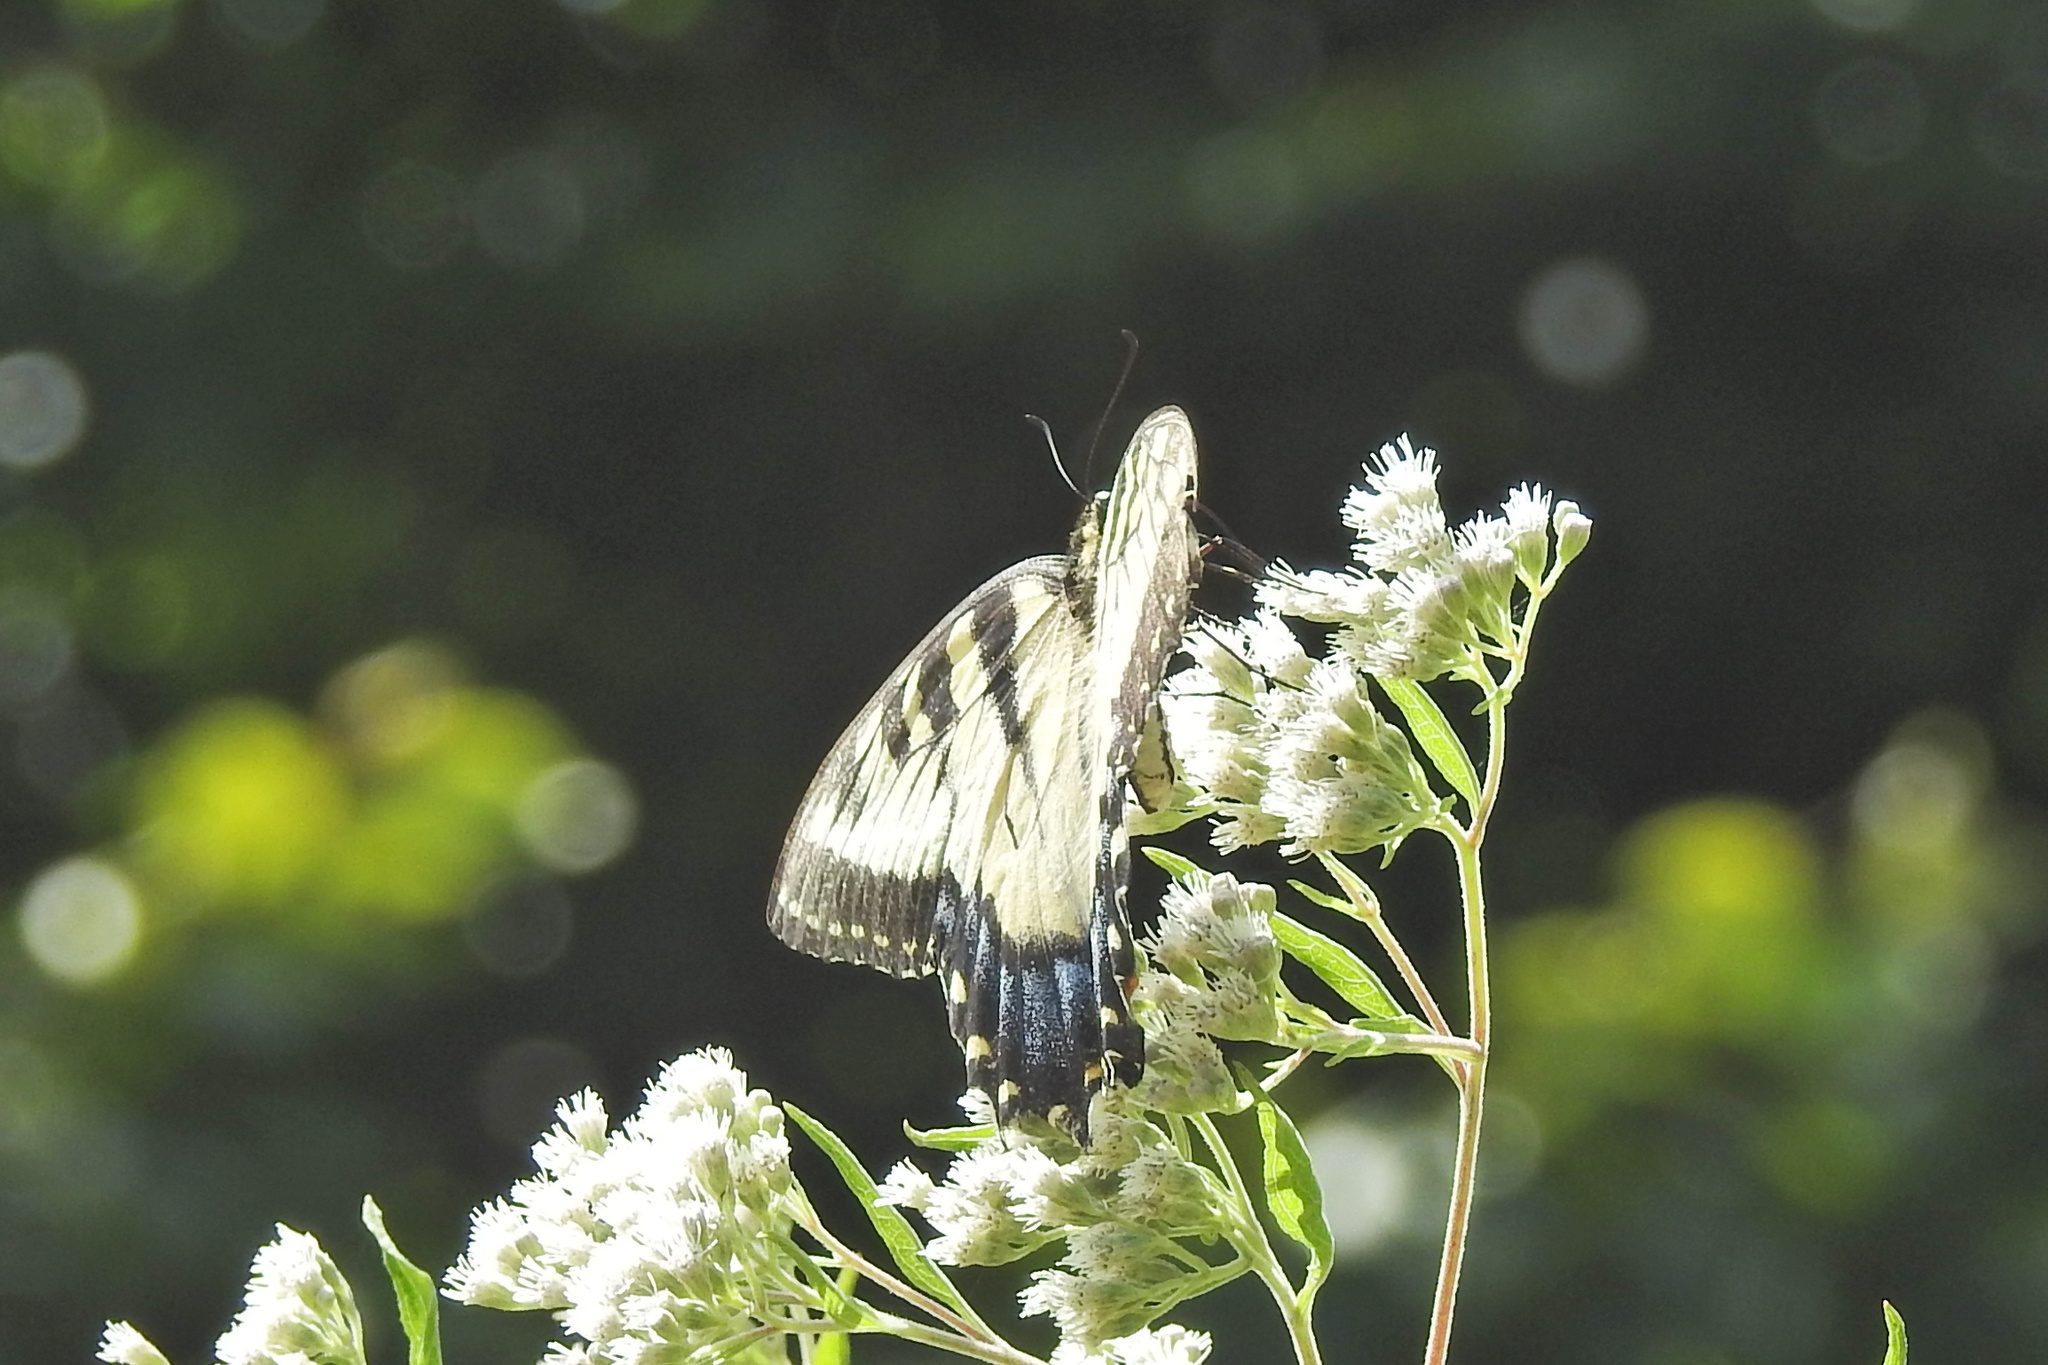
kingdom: Animalia
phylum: Arthropoda
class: Insecta
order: Lepidoptera
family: Papilionidae
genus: Papilio
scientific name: Papilio glaucus
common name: Tiger swallowtail
